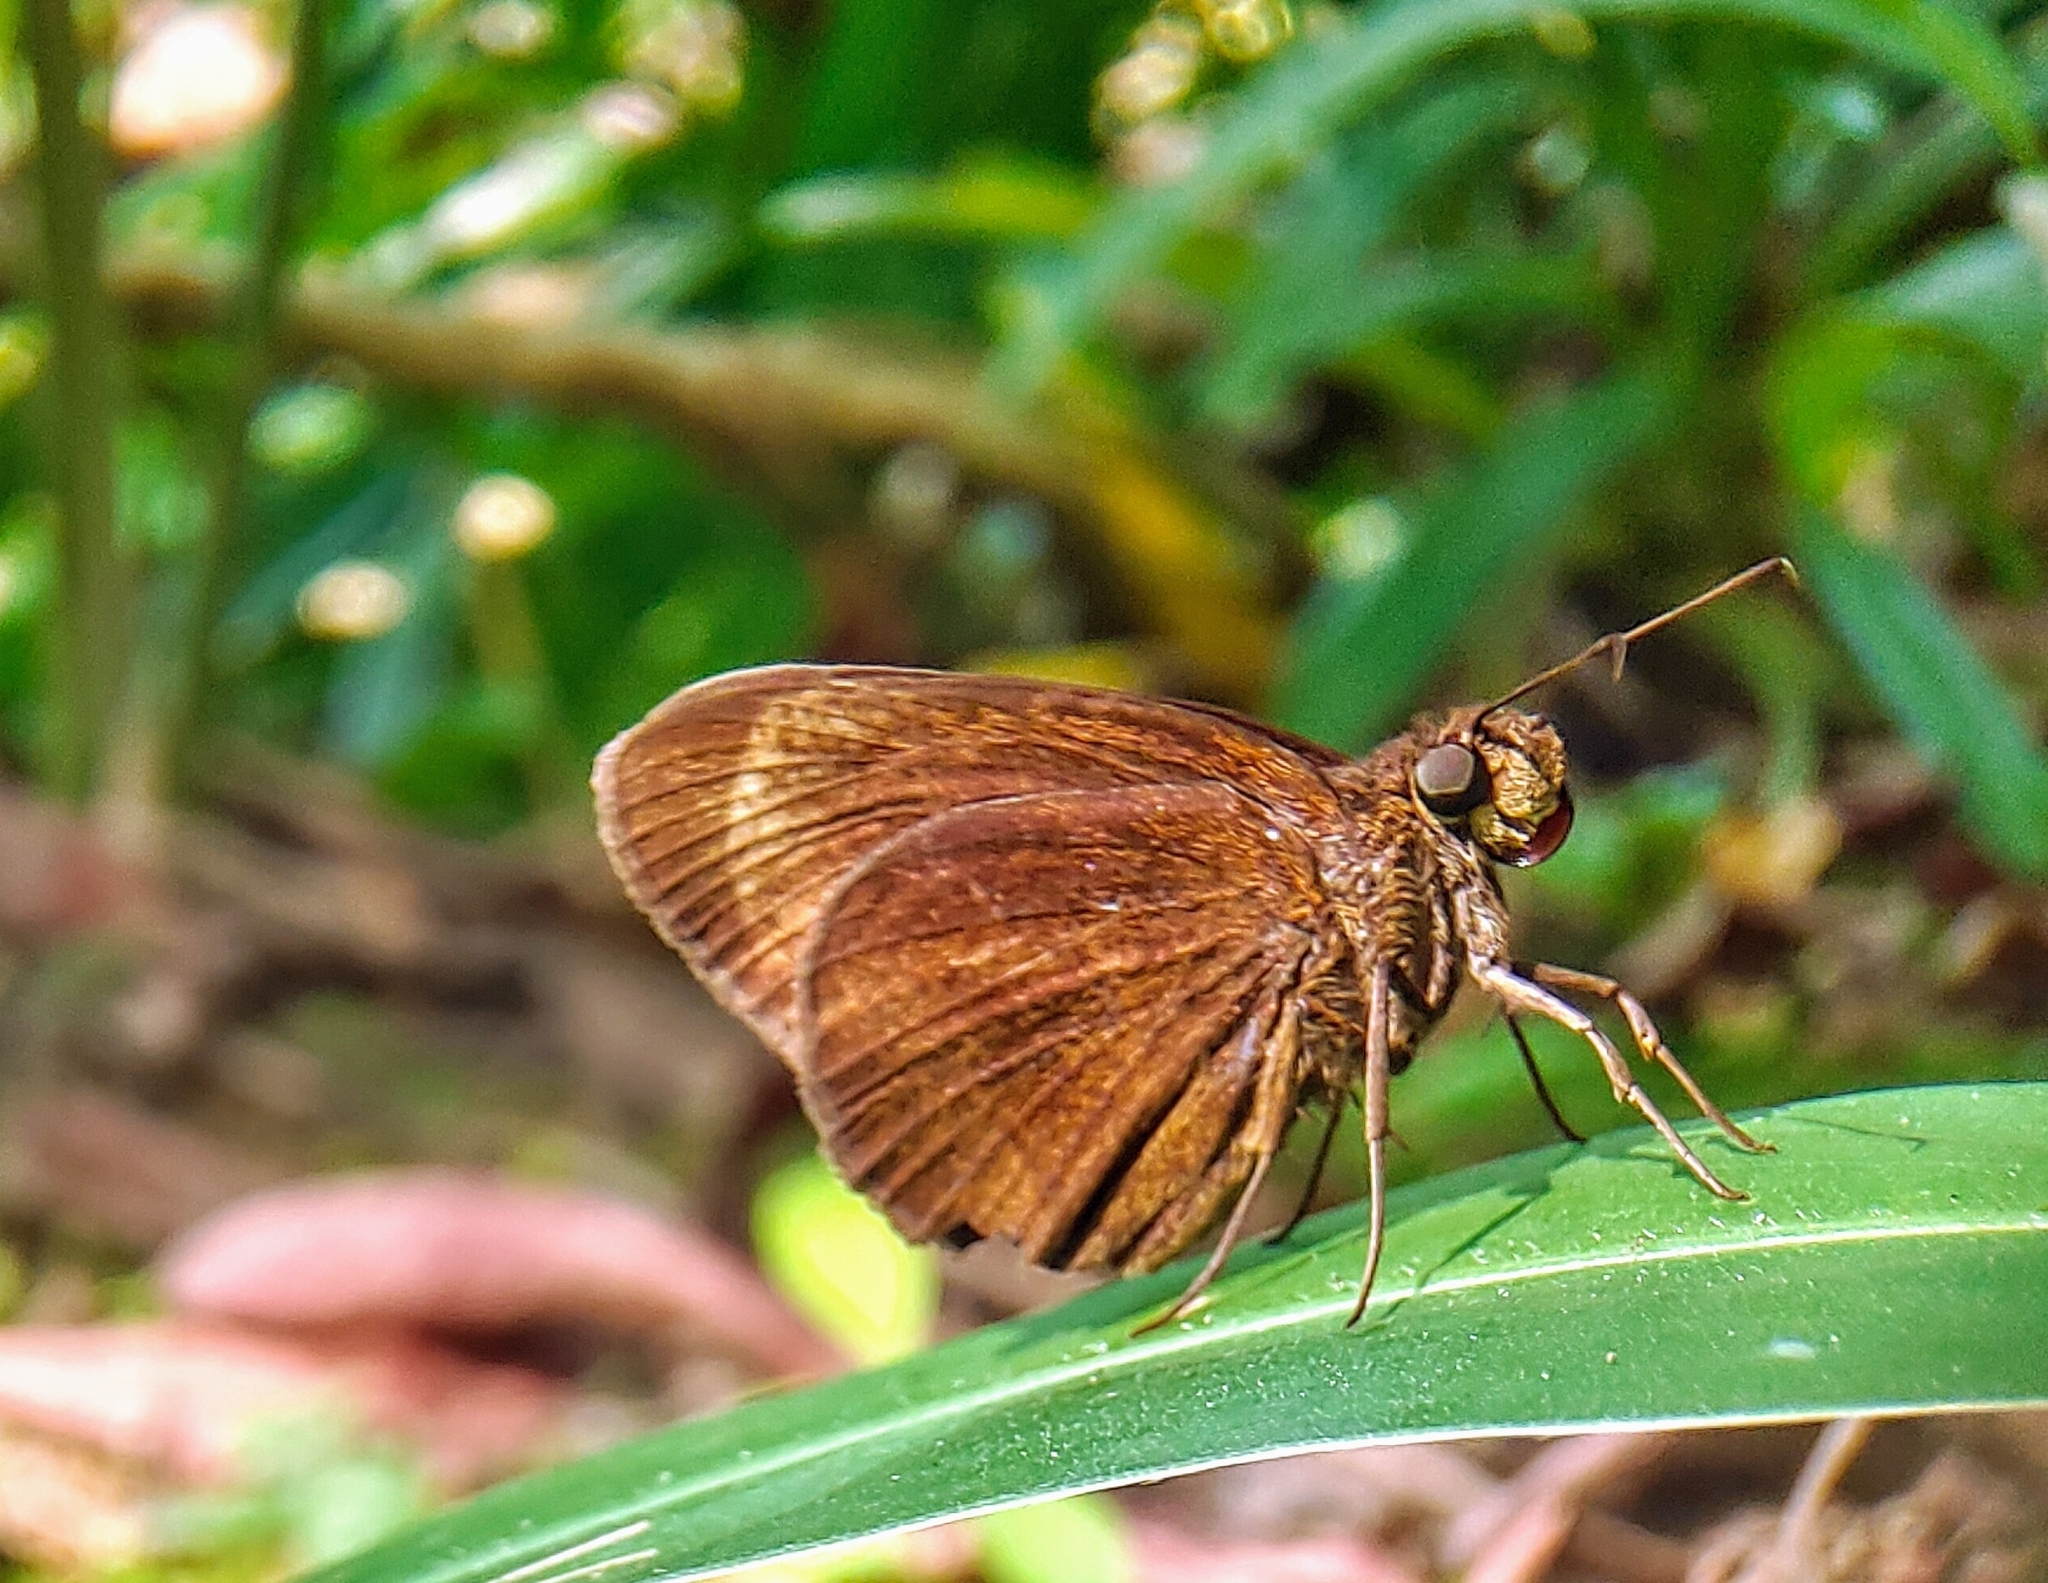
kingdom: Animalia
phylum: Arthropoda
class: Insecta
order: Lepidoptera
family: Hesperiidae
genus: Ancistroides
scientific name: Ancistroides nigrita
